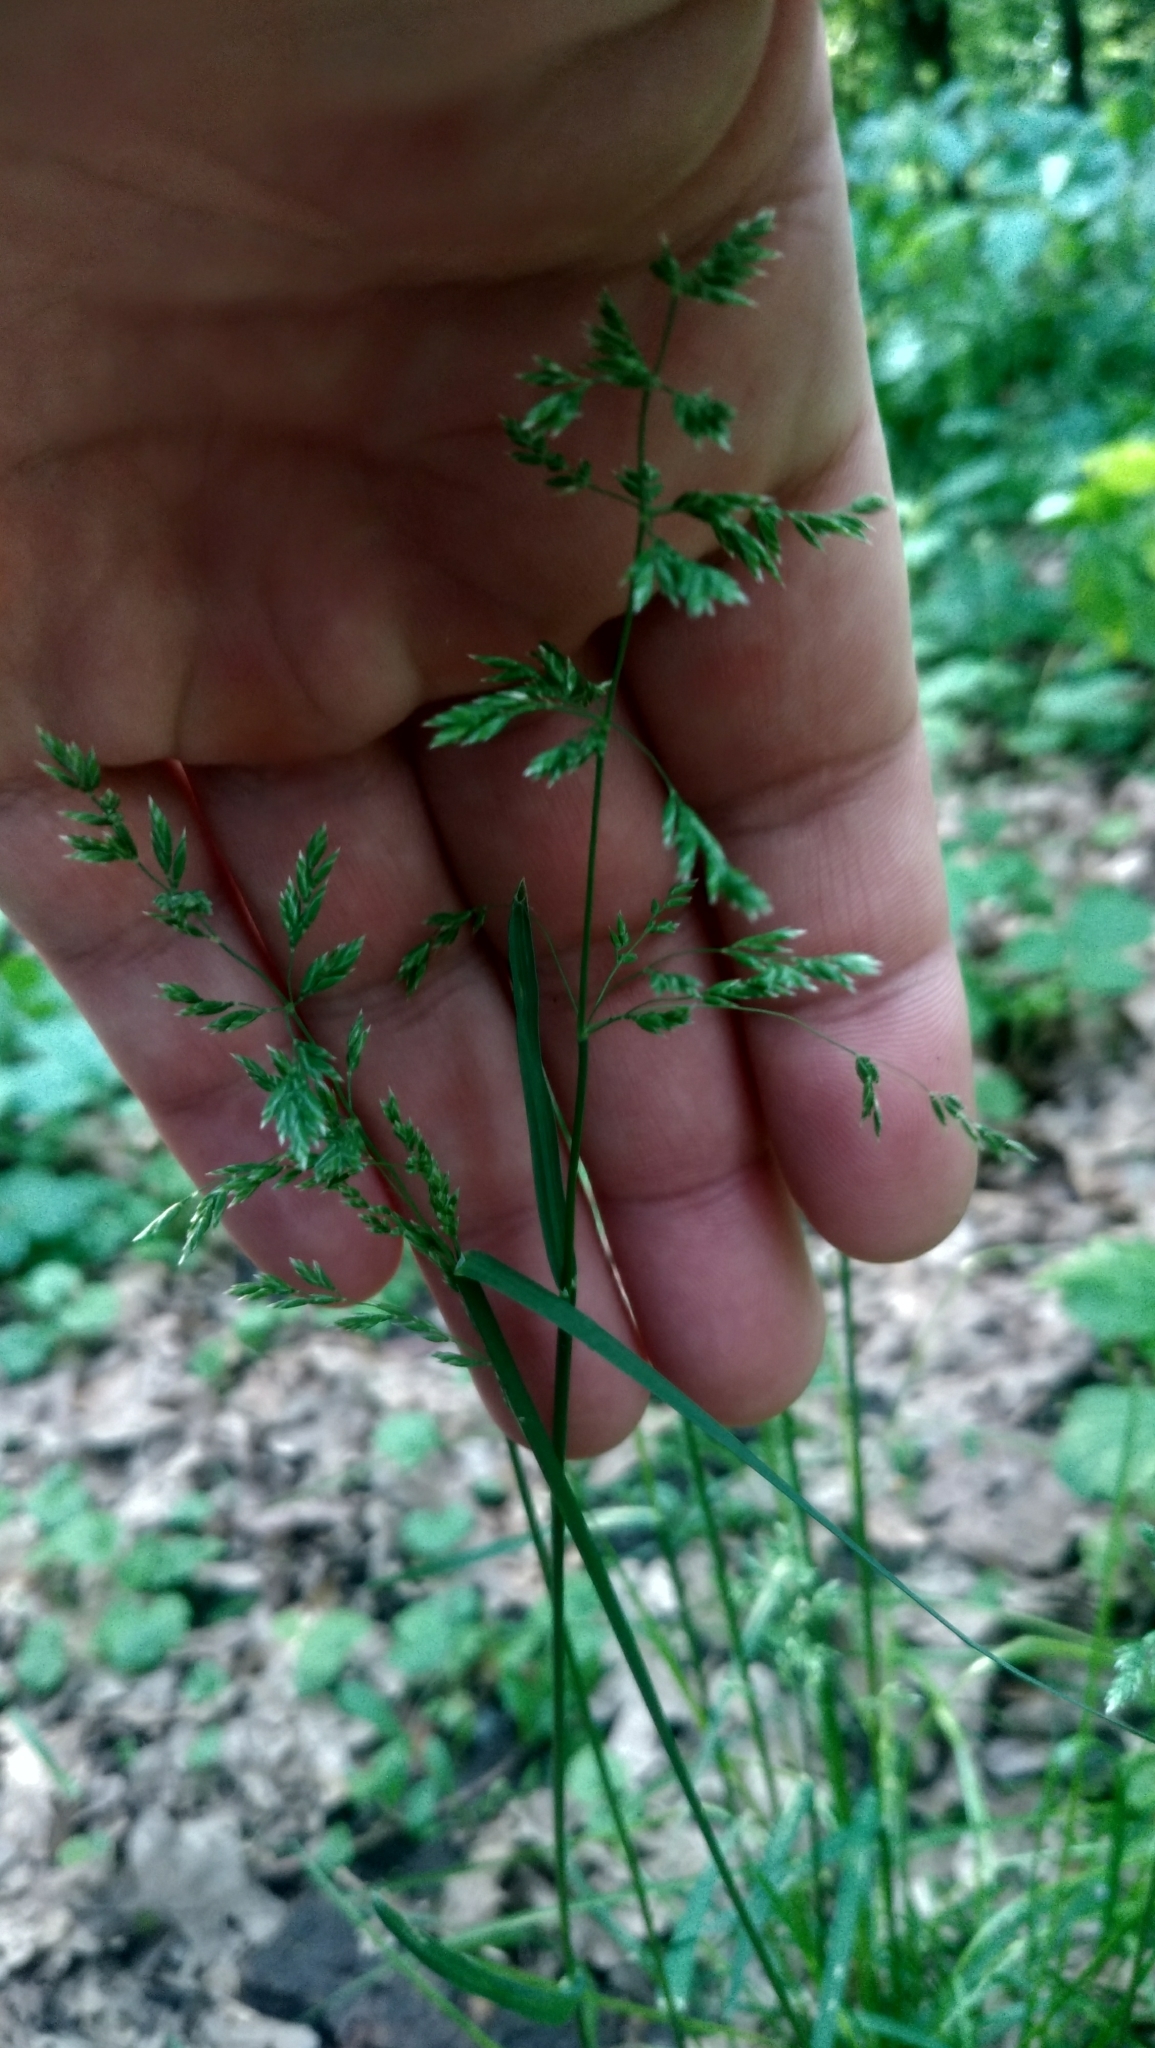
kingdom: Plantae
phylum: Tracheophyta
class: Liliopsida
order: Poales
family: Poaceae
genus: Poa
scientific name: Poa pratensis
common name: Kentucky bluegrass
